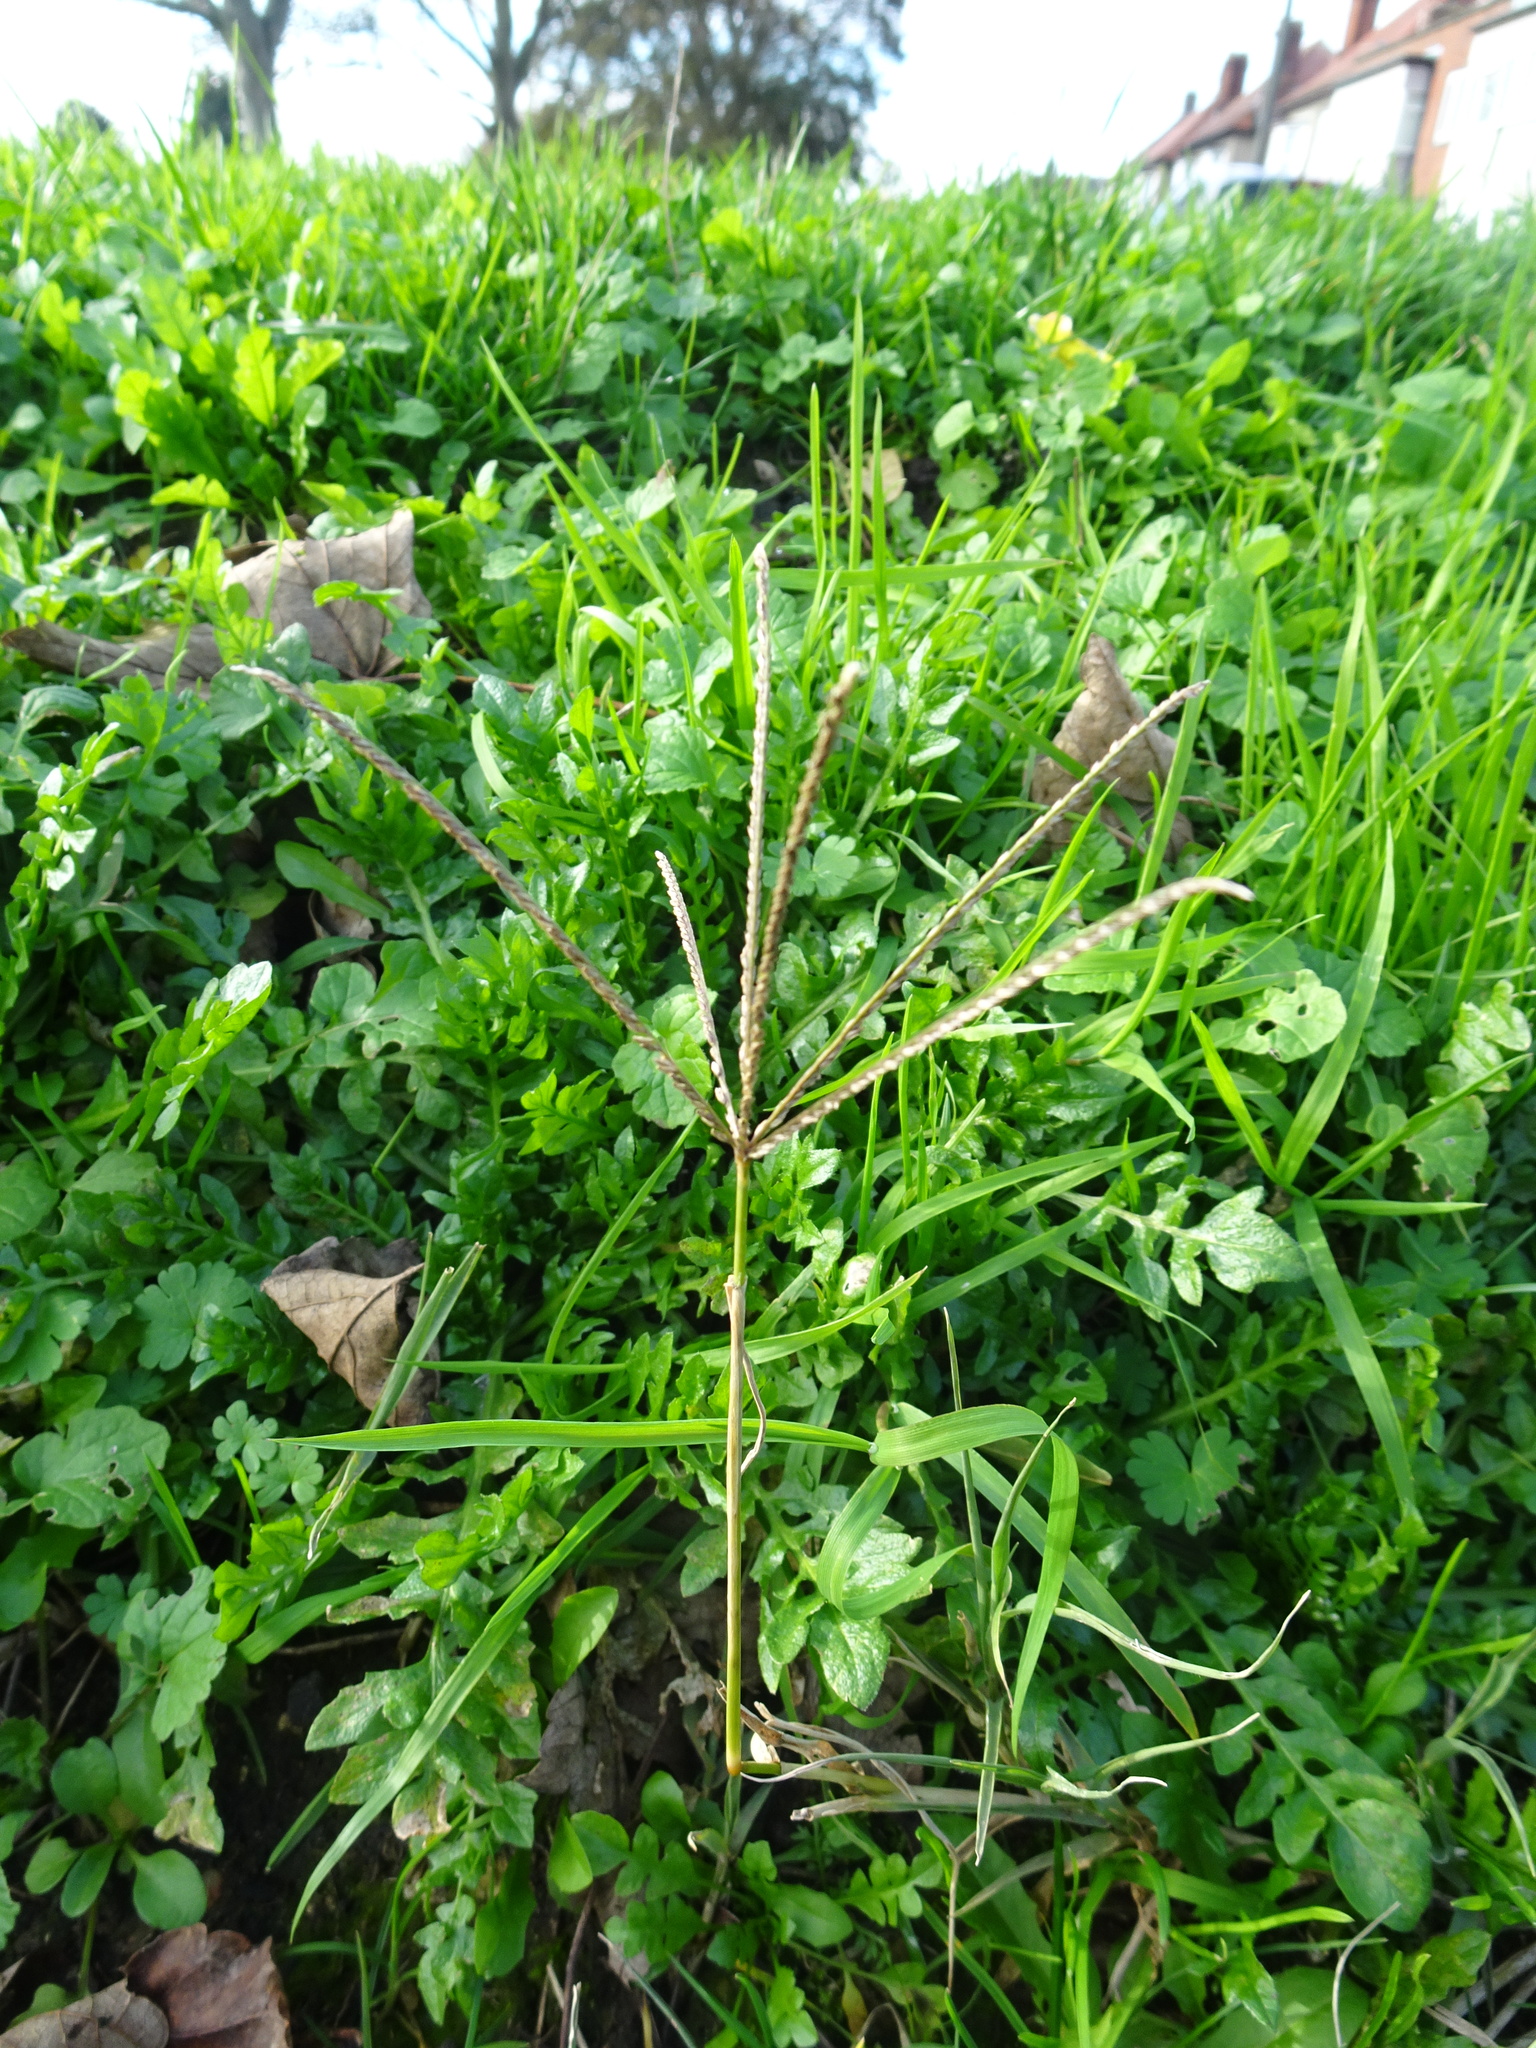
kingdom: Plantae
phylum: Tracheophyta
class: Liliopsida
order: Poales
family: Poaceae
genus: Cynodon
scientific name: Cynodon dactylon
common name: Bermuda grass
